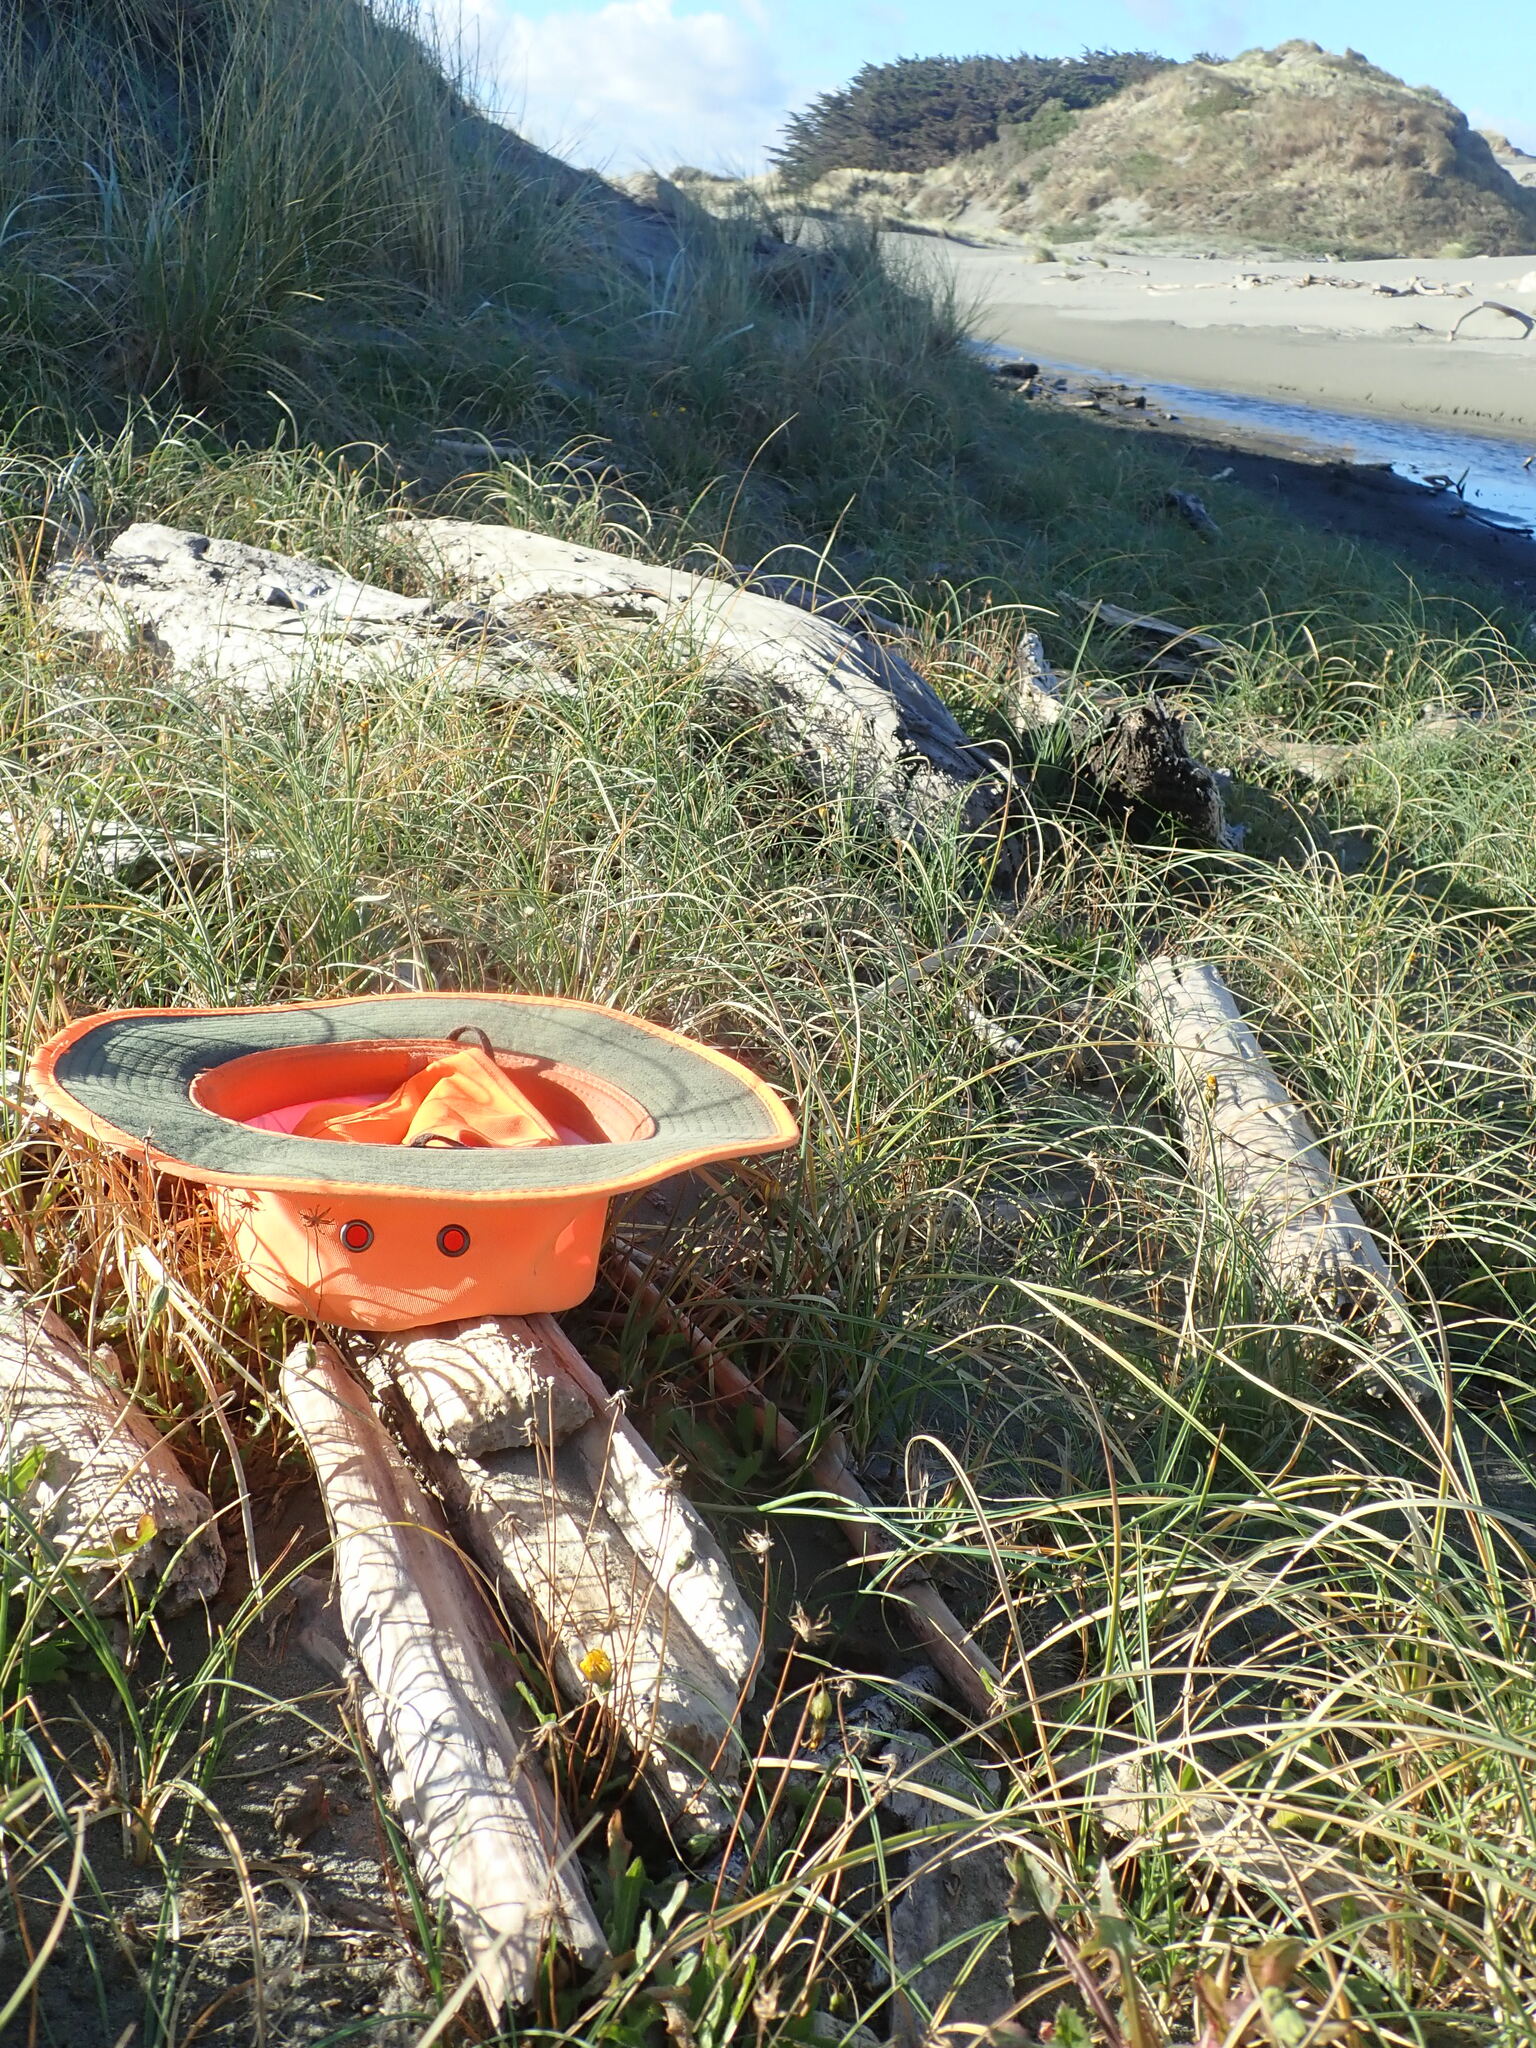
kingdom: Animalia
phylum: Arthropoda
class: Arachnida
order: Araneae
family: Theridiidae
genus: Latrodectus
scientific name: Latrodectus katipo
